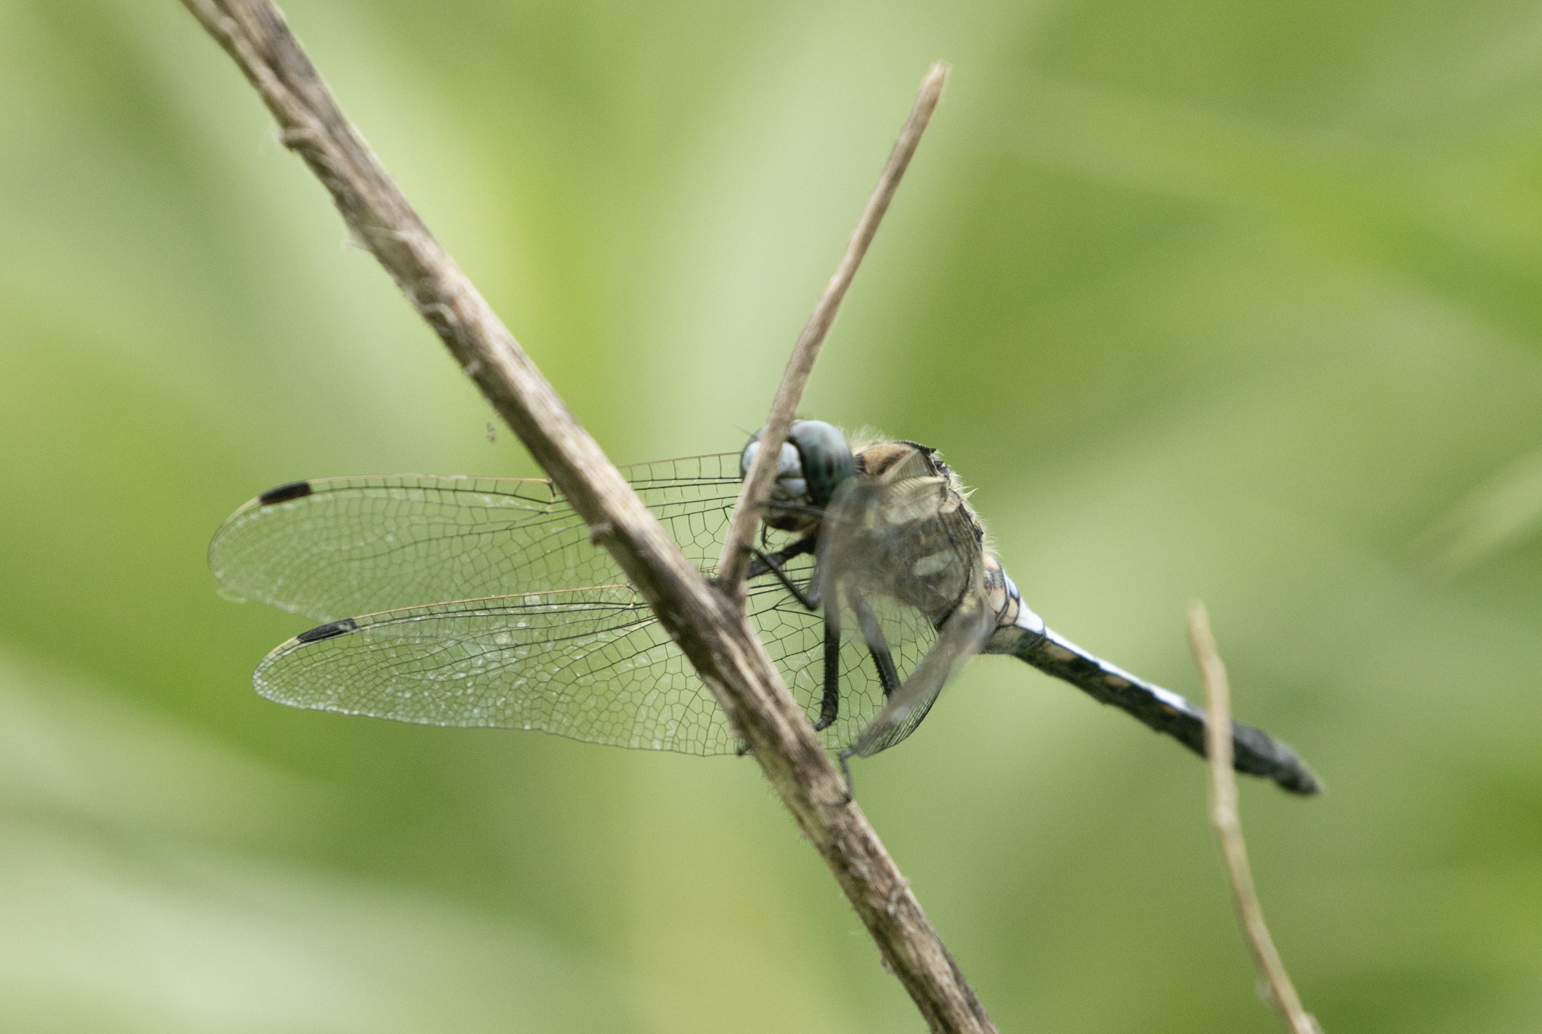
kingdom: Animalia
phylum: Arthropoda
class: Insecta
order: Odonata
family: Libellulidae
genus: Orthetrum
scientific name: Orthetrum albistylum
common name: White-tailed skimmer
